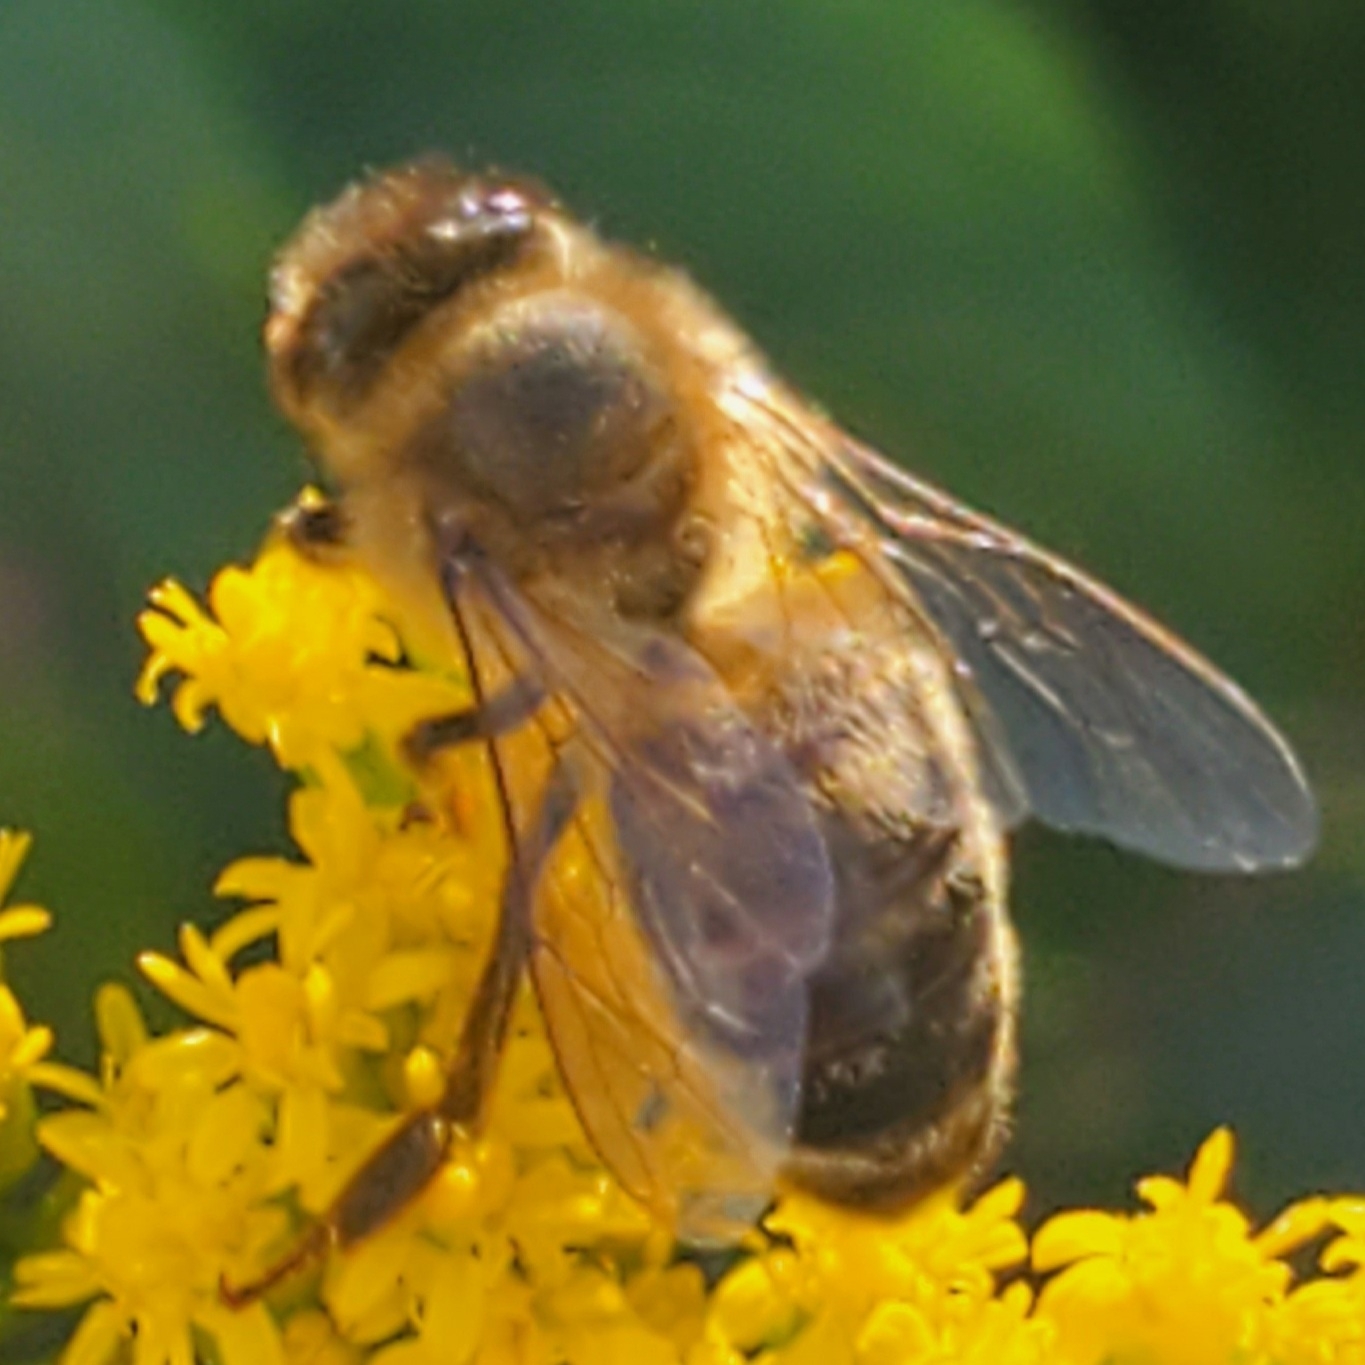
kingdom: Animalia
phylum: Arthropoda
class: Insecta
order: Hymenoptera
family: Apidae
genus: Apis
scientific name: Apis mellifera
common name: Honey bee
